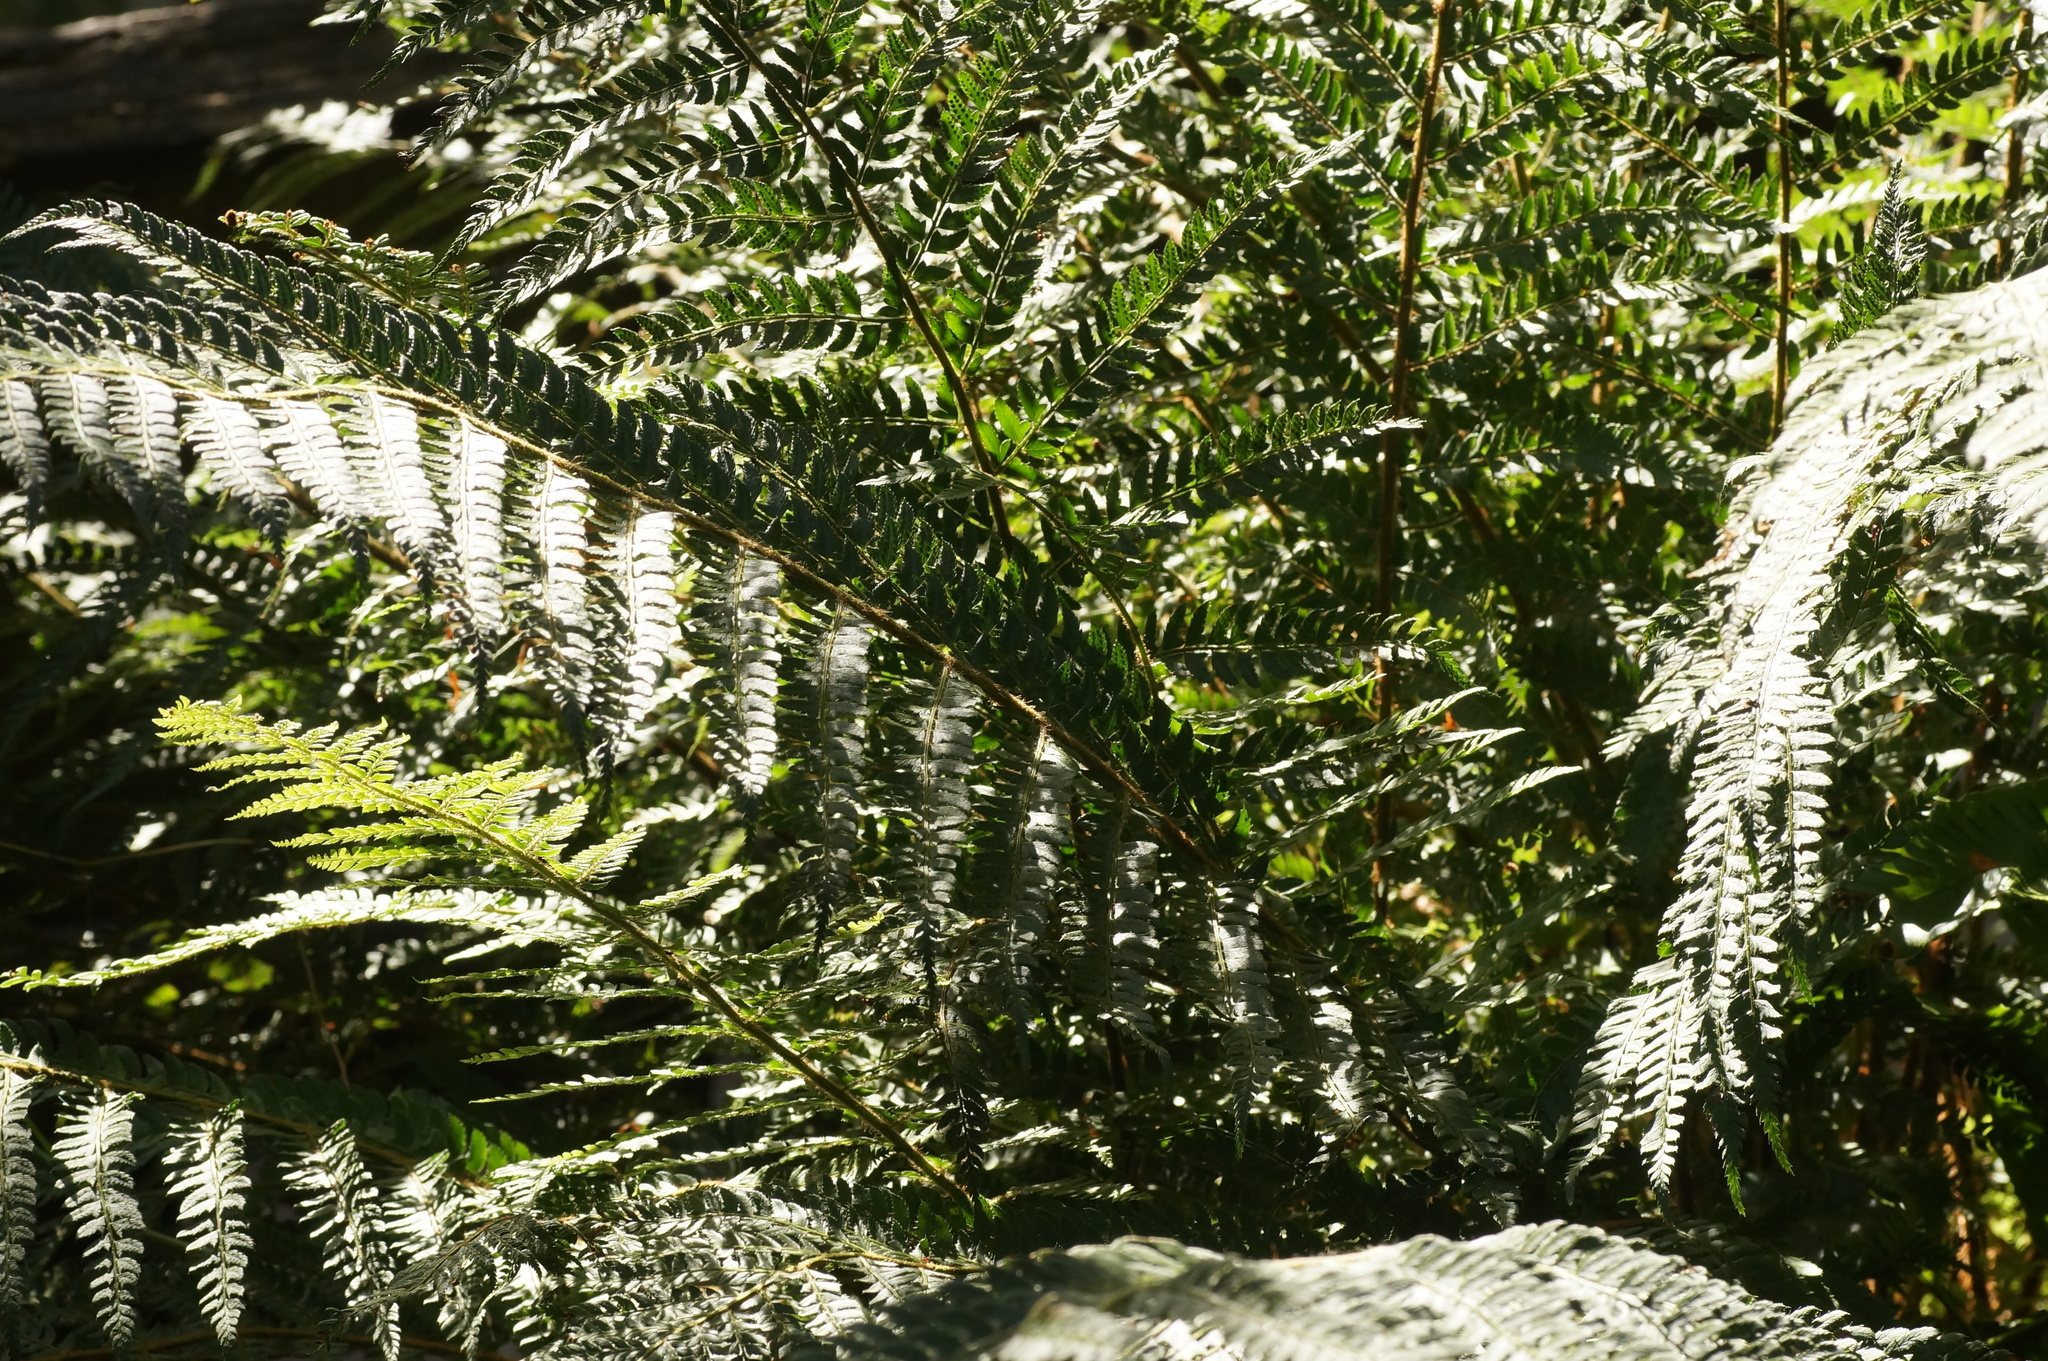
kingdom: Plantae
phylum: Tracheophyta
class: Polypodiopsida
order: Polypodiales
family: Dryopteridaceae
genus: Polystichum
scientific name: Polystichum setiferum
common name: Soft shield-fern
